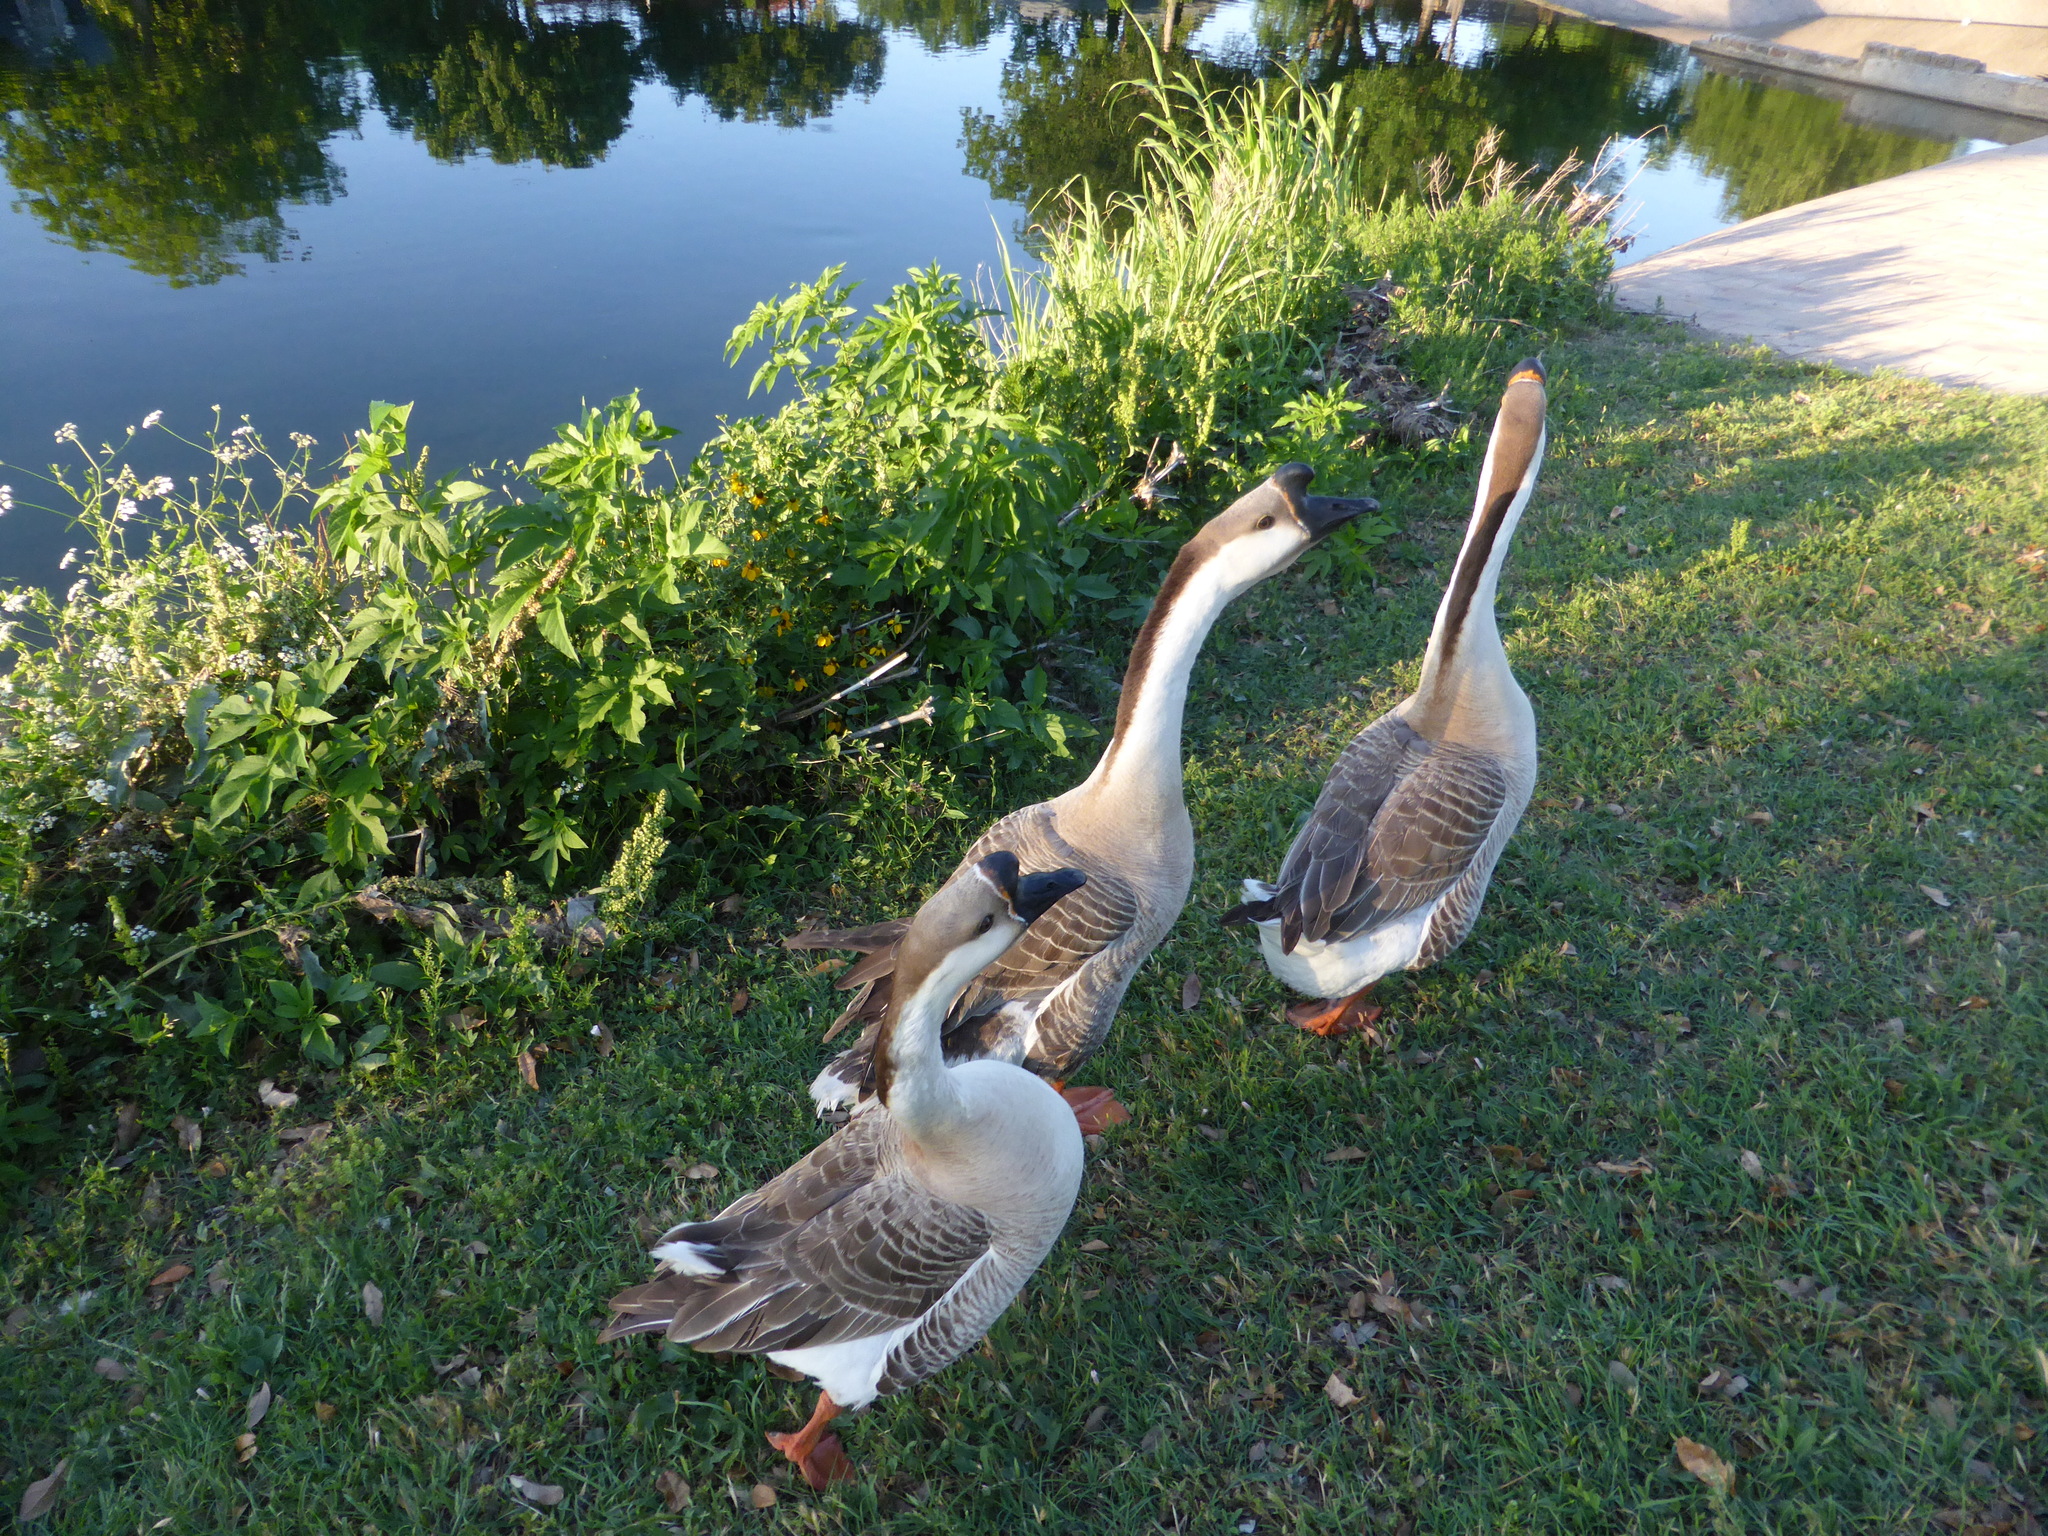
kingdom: Animalia
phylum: Chordata
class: Aves
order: Anseriformes
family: Anatidae
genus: Anser
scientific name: Anser cygnoides
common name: Swan goose
